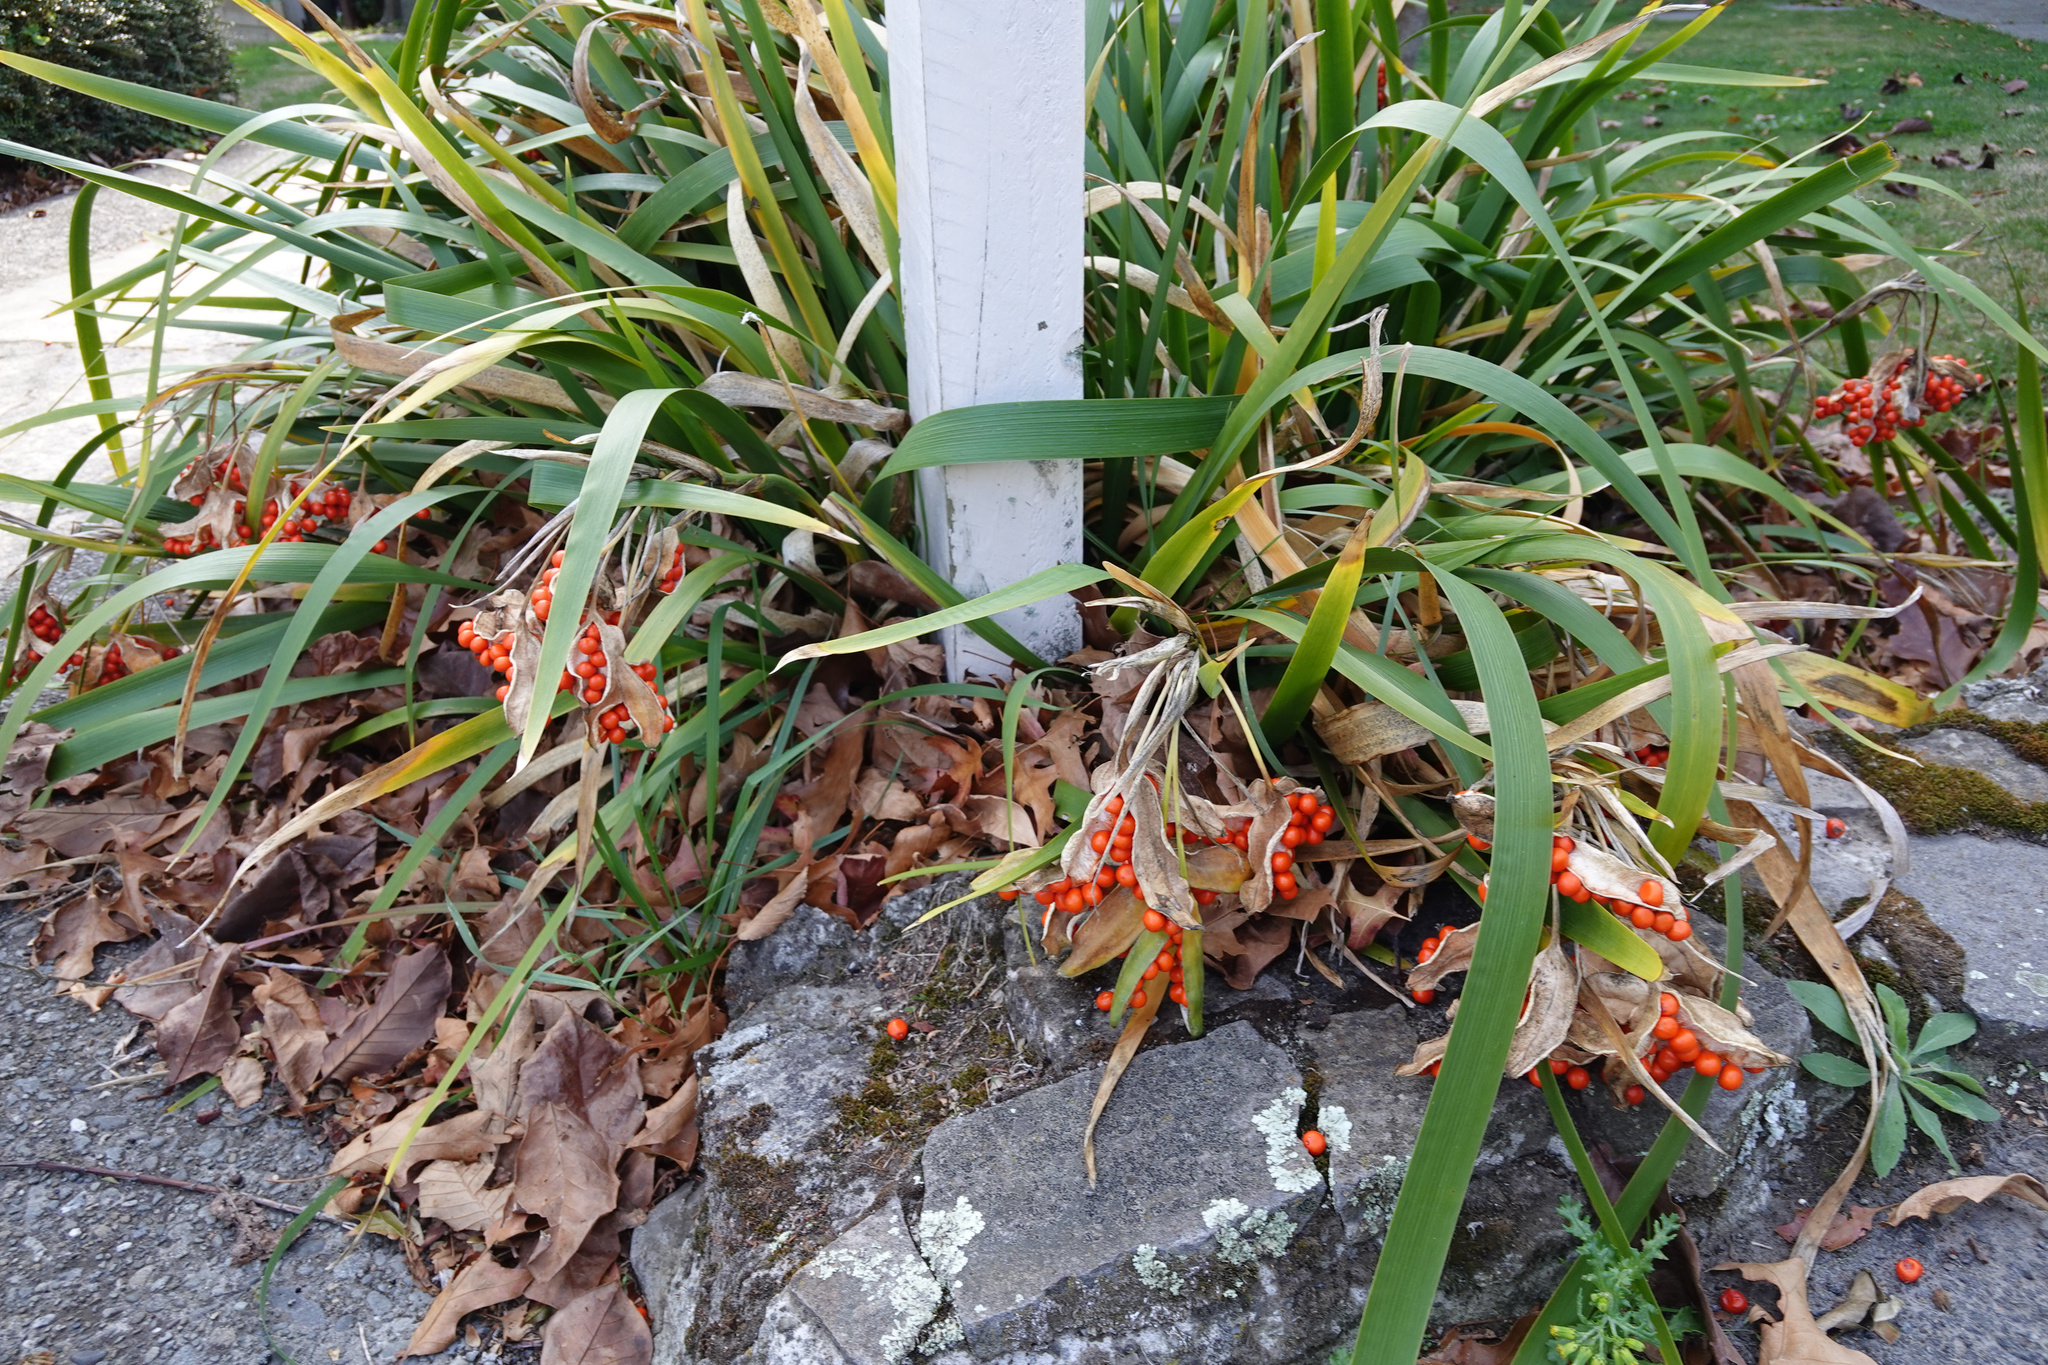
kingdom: Plantae
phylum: Tracheophyta
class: Liliopsida
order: Asparagales
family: Iridaceae
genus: Iris
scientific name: Iris foetidissima
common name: Stinking iris
